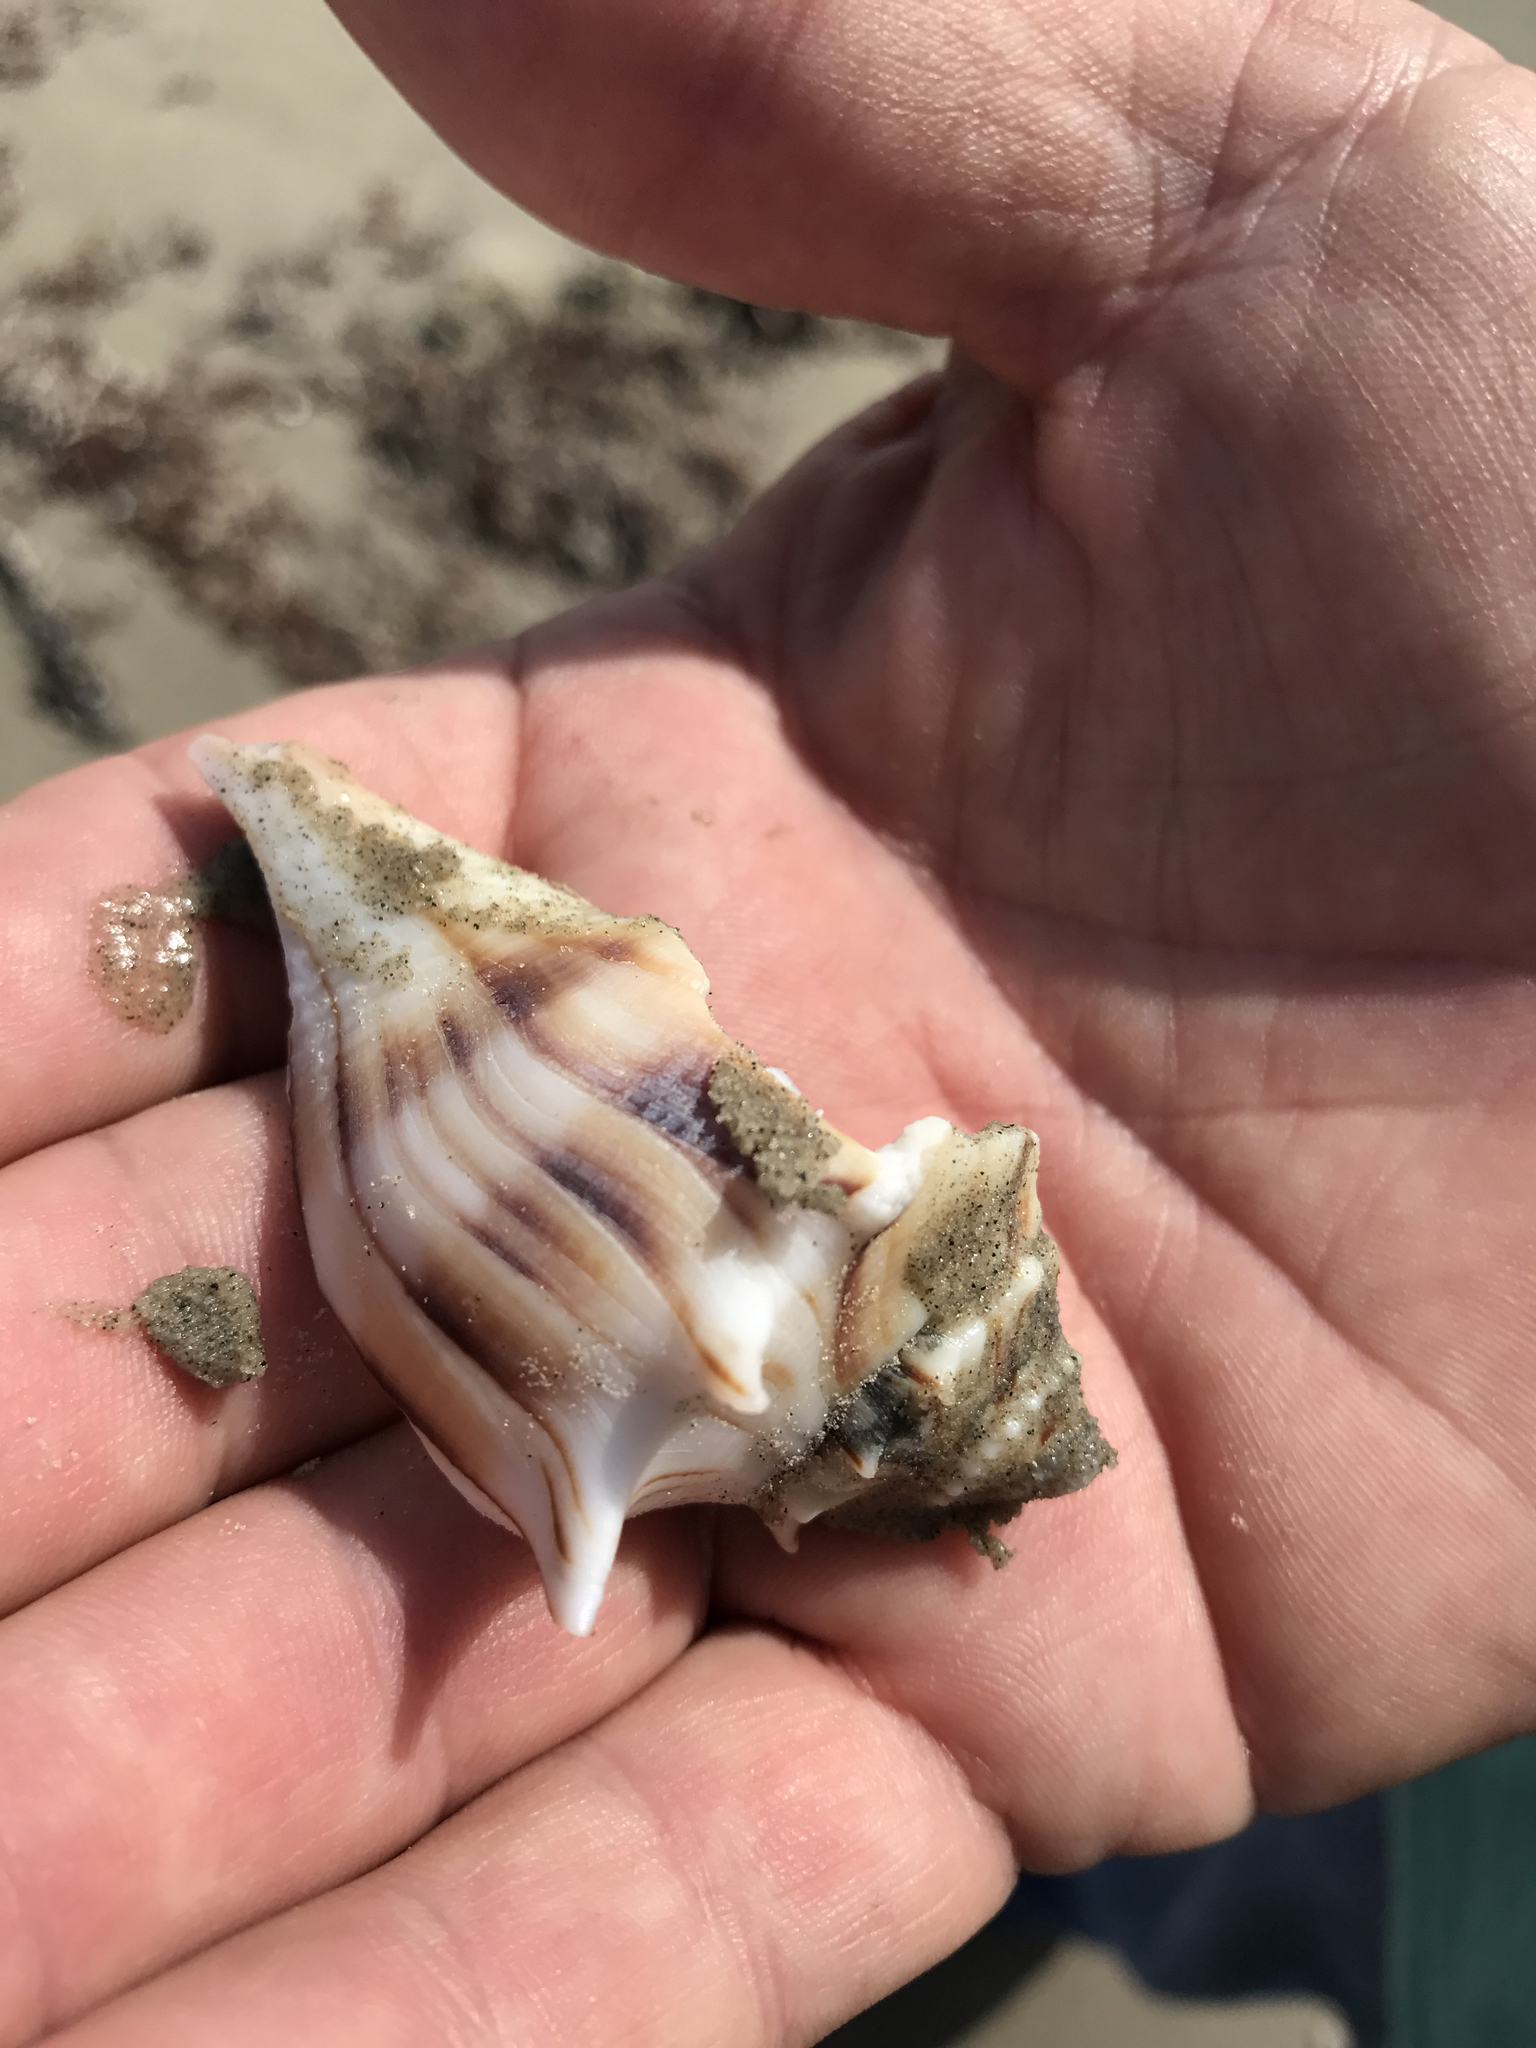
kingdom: Animalia
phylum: Mollusca
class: Gastropoda
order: Neogastropoda
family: Busyconidae
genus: Sinistrofulgur
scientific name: Sinistrofulgur pulleyi
